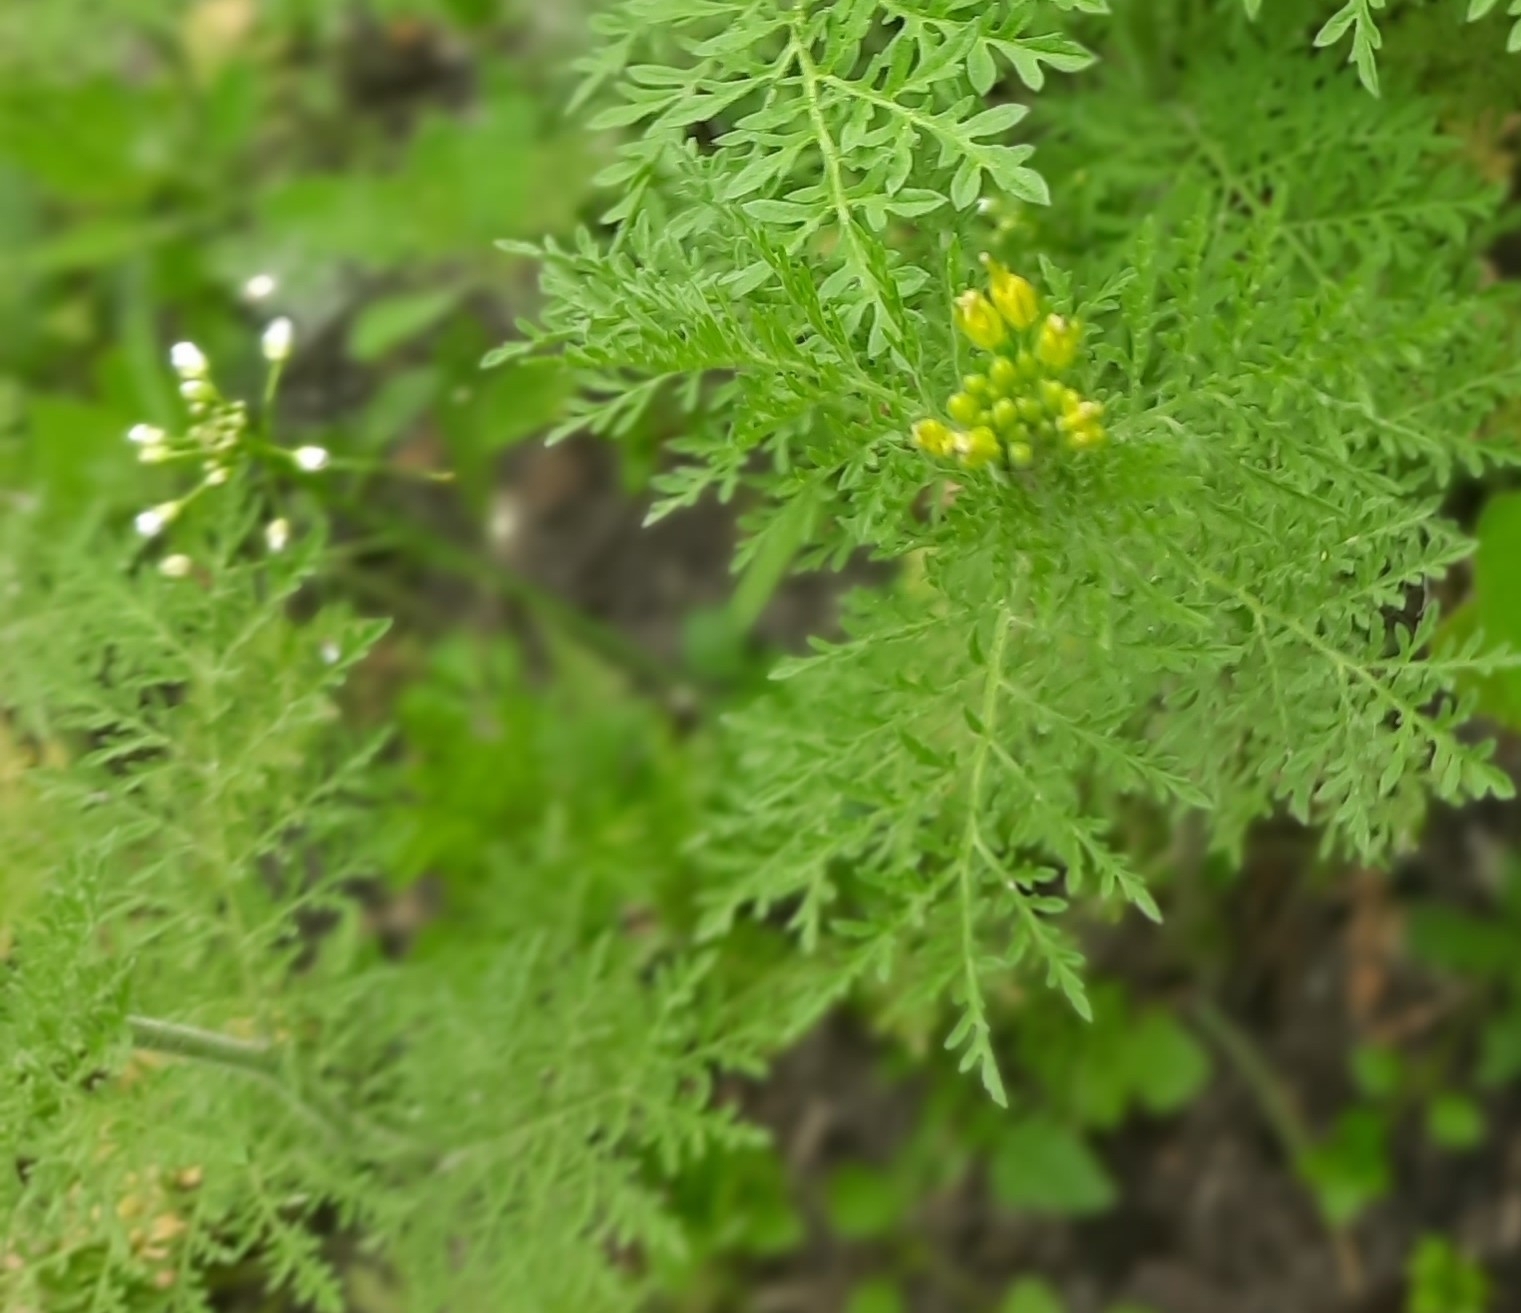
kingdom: Plantae
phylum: Tracheophyta
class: Magnoliopsida
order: Brassicales
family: Brassicaceae
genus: Descurainia
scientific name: Descurainia sophia
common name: Flixweed
